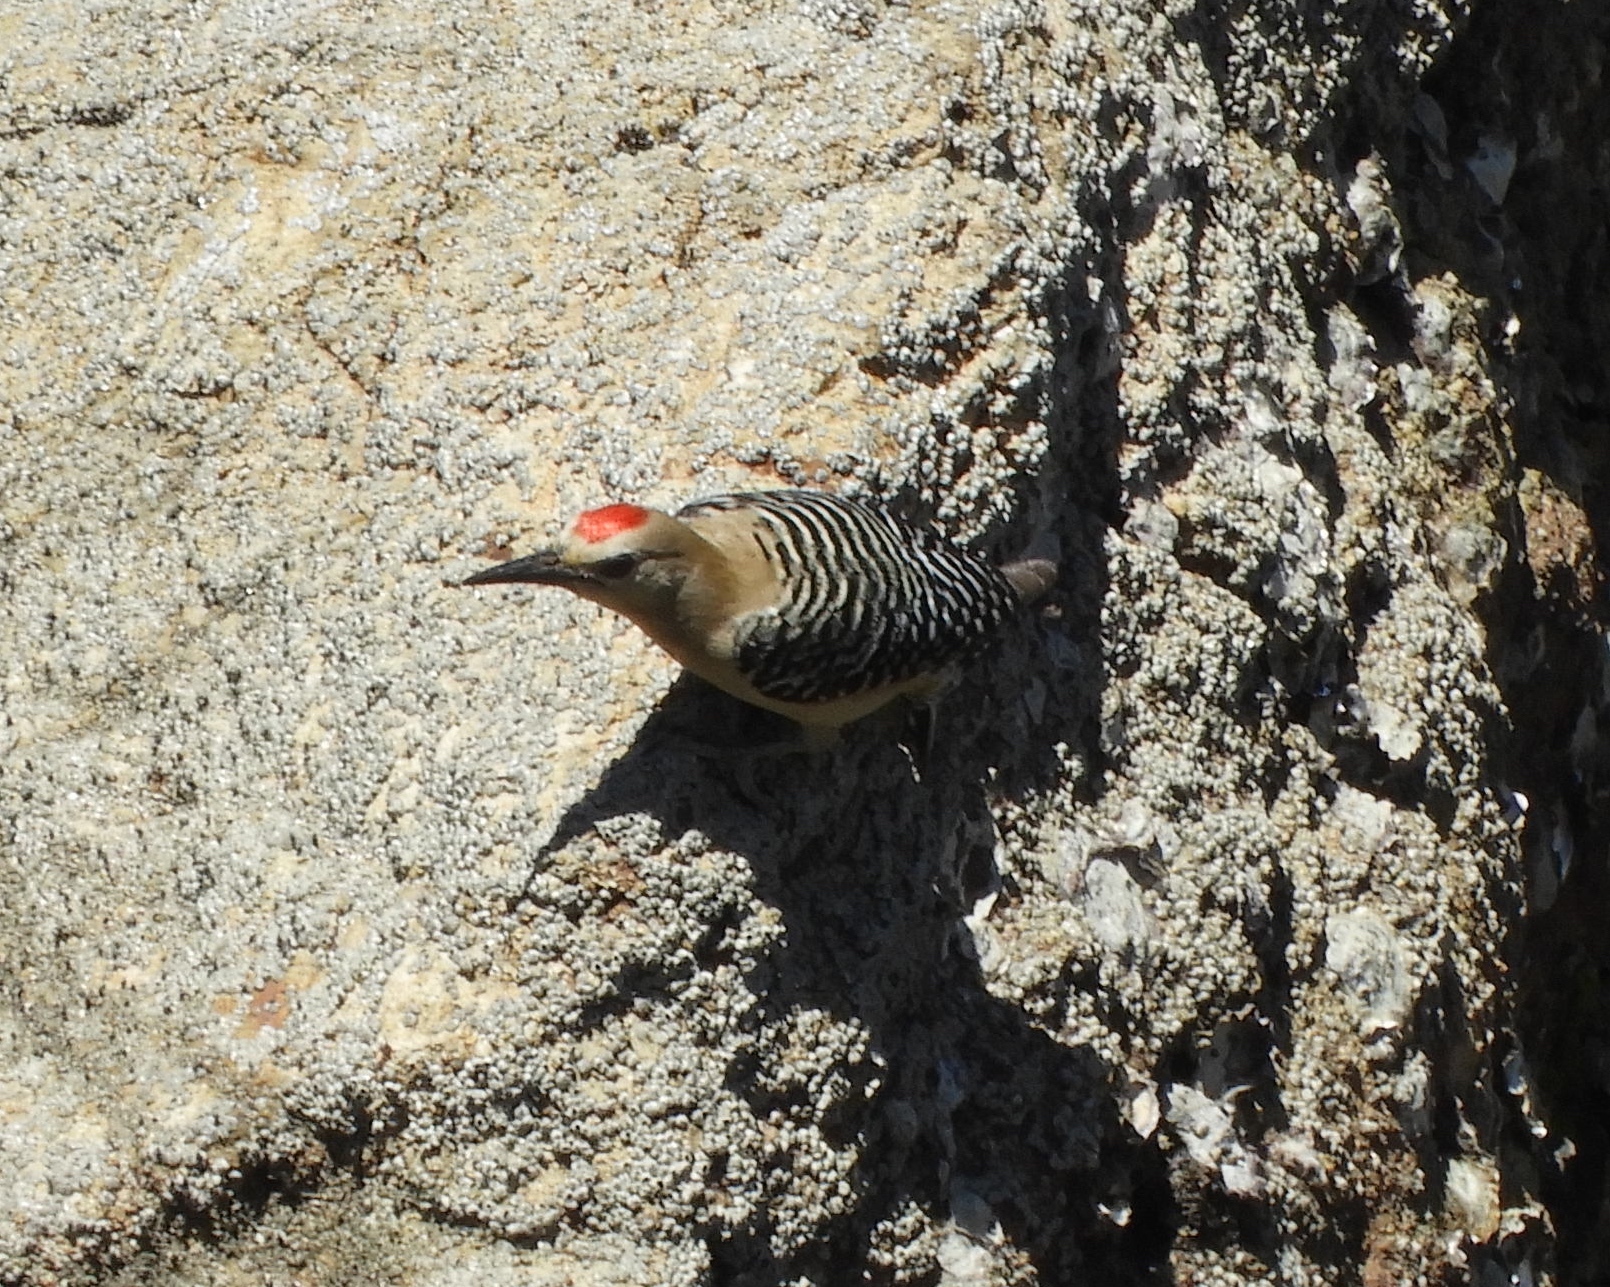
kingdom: Animalia
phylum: Chordata
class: Aves
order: Piciformes
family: Picidae
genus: Melanerpes
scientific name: Melanerpes uropygialis
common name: Gila woodpecker
